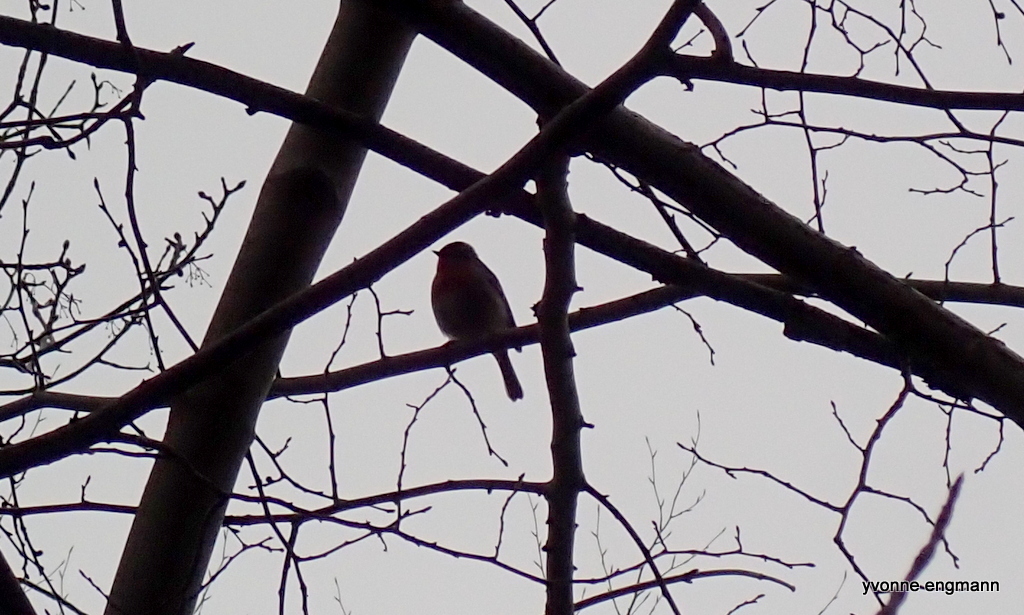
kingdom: Animalia
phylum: Chordata
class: Aves
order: Passeriformes
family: Muscicapidae
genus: Erithacus
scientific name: Erithacus rubecula
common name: European robin
